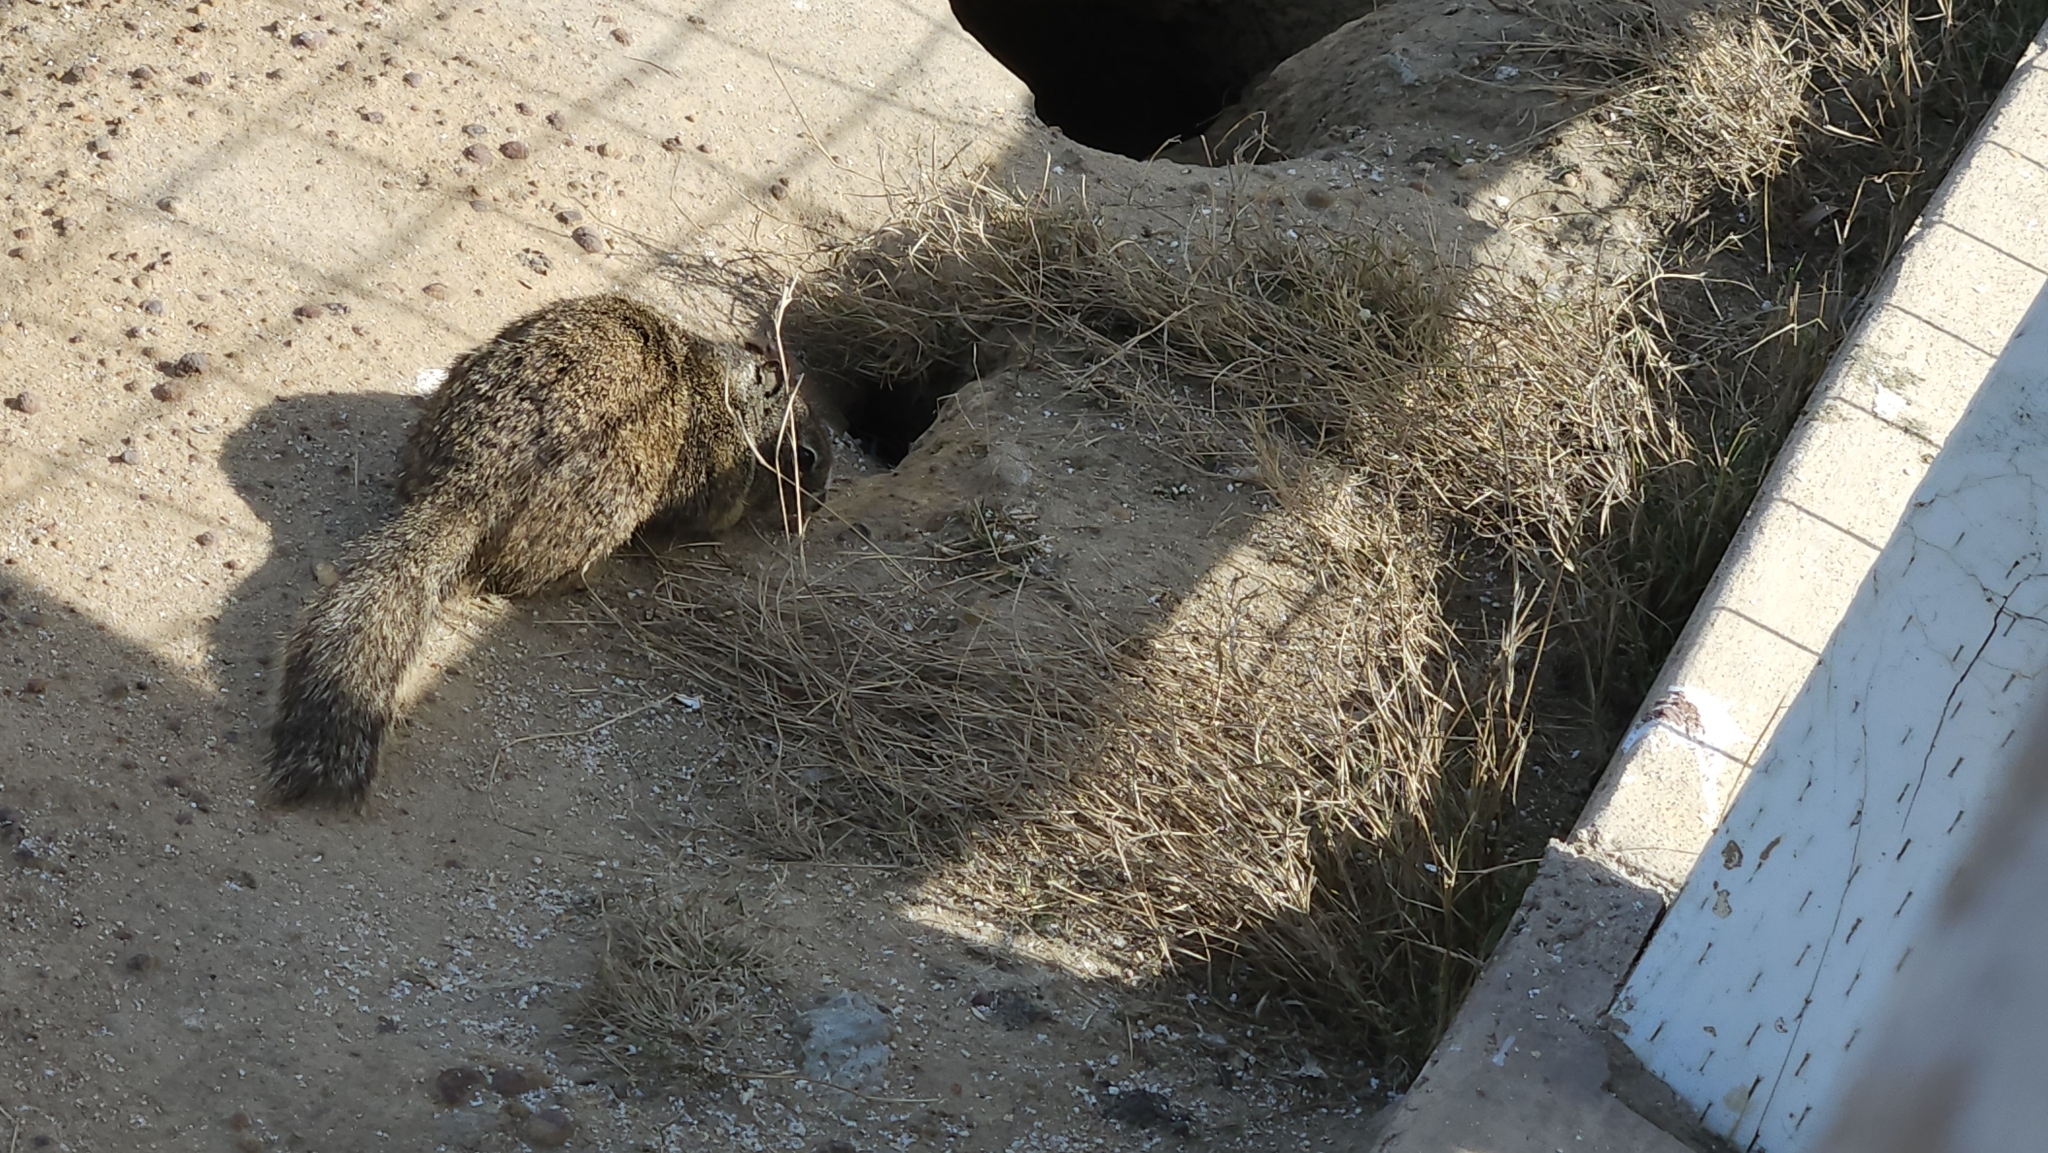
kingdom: Animalia
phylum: Chordata
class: Mammalia
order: Rodentia
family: Sciuridae
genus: Otospermophilus
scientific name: Otospermophilus beecheyi
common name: California ground squirrel
